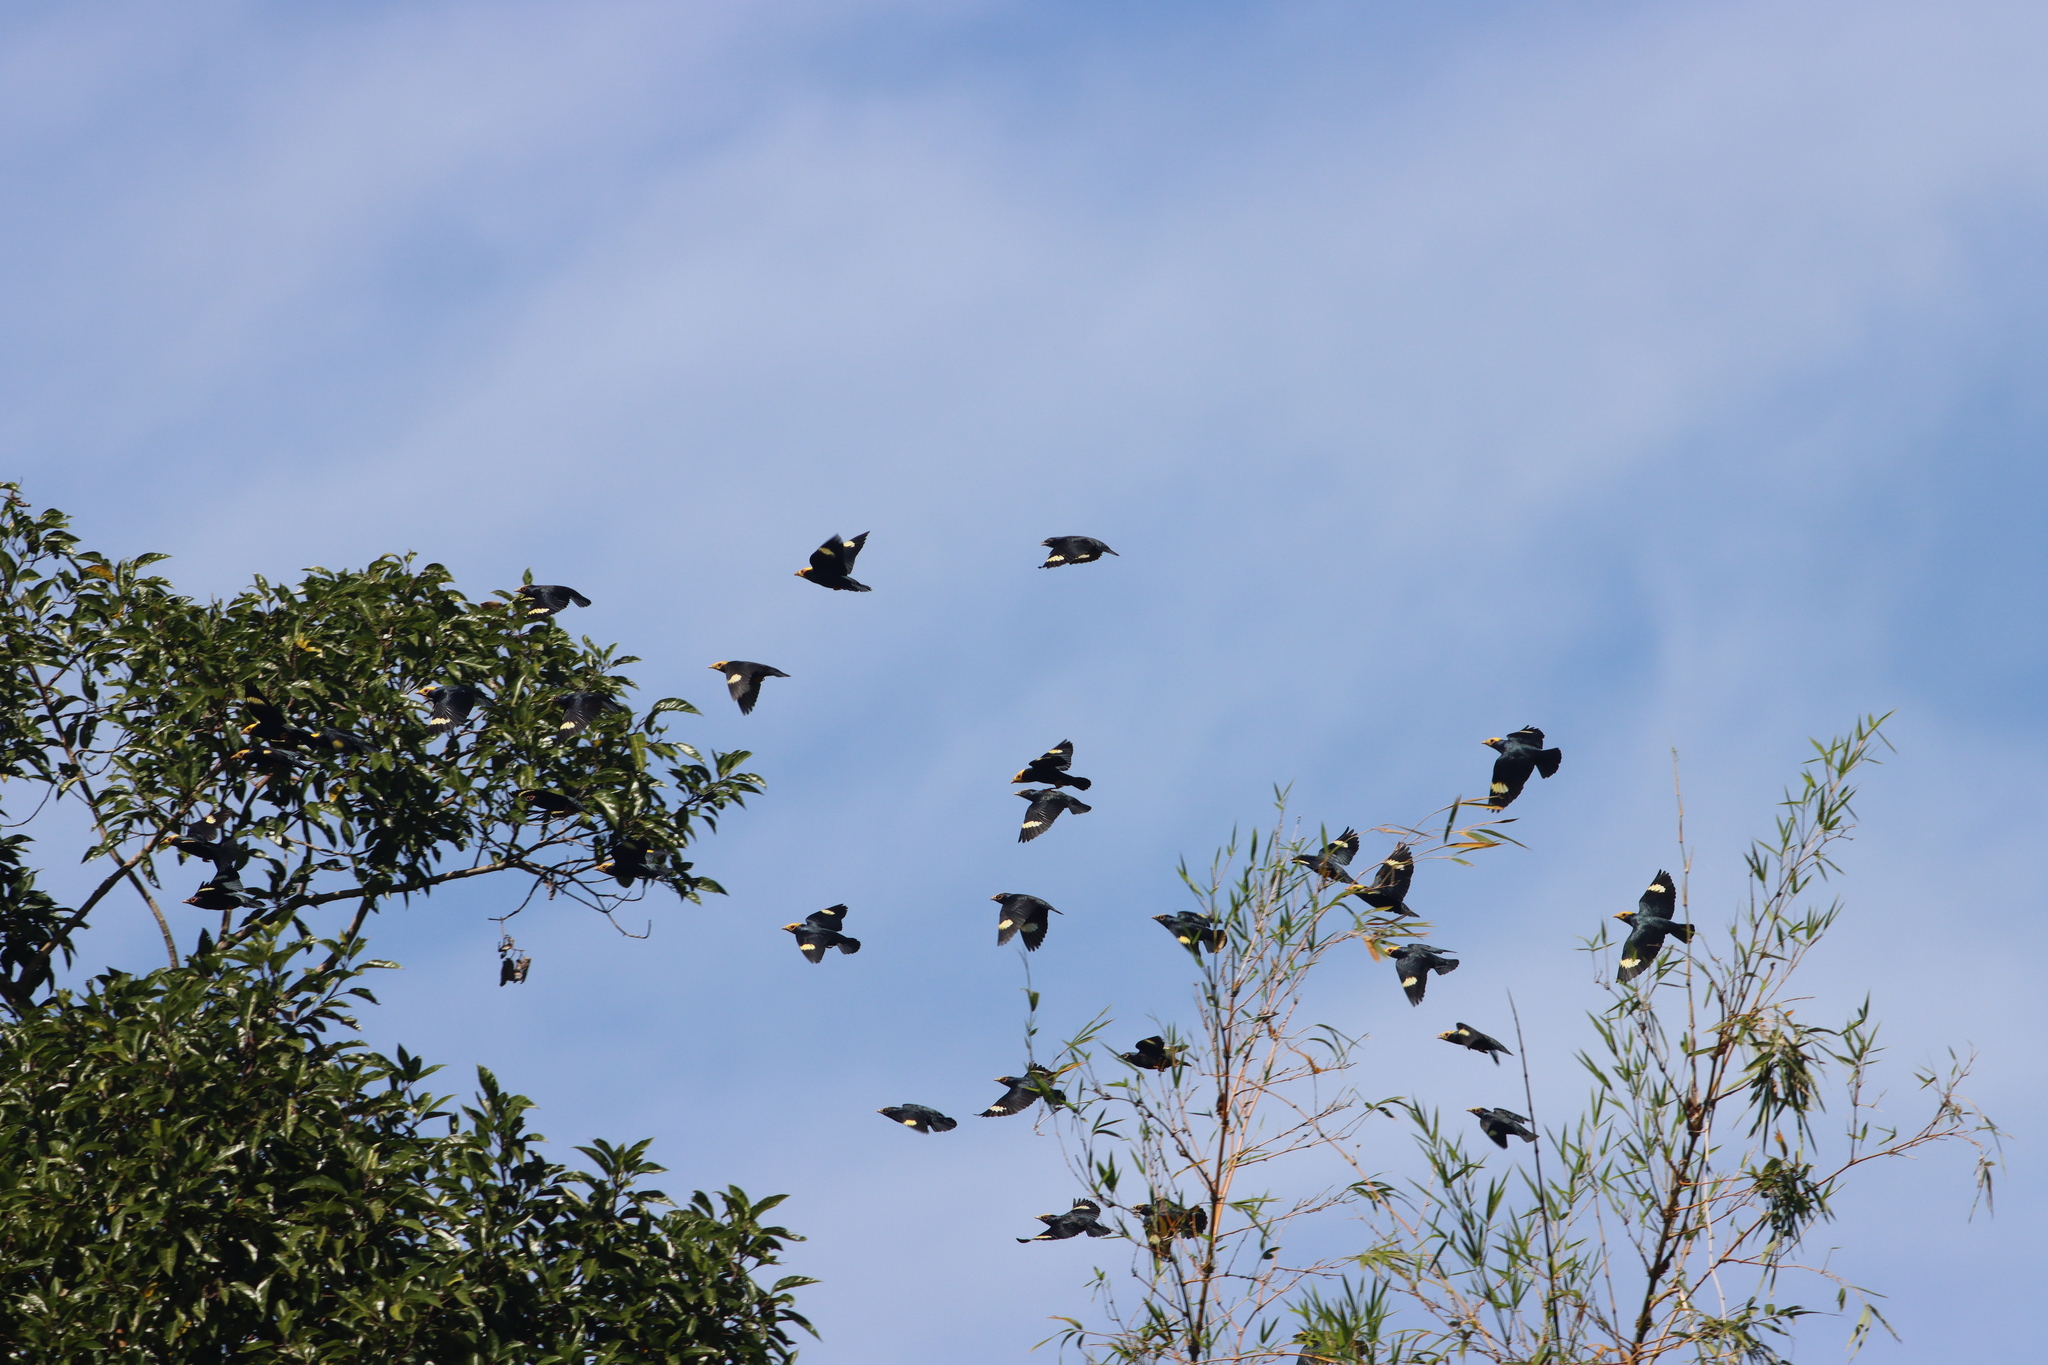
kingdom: Animalia
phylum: Chordata
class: Aves
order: Passeriformes
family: Sturnidae
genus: Ampeliceps
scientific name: Ampeliceps coronatus
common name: Golden-crested myna
